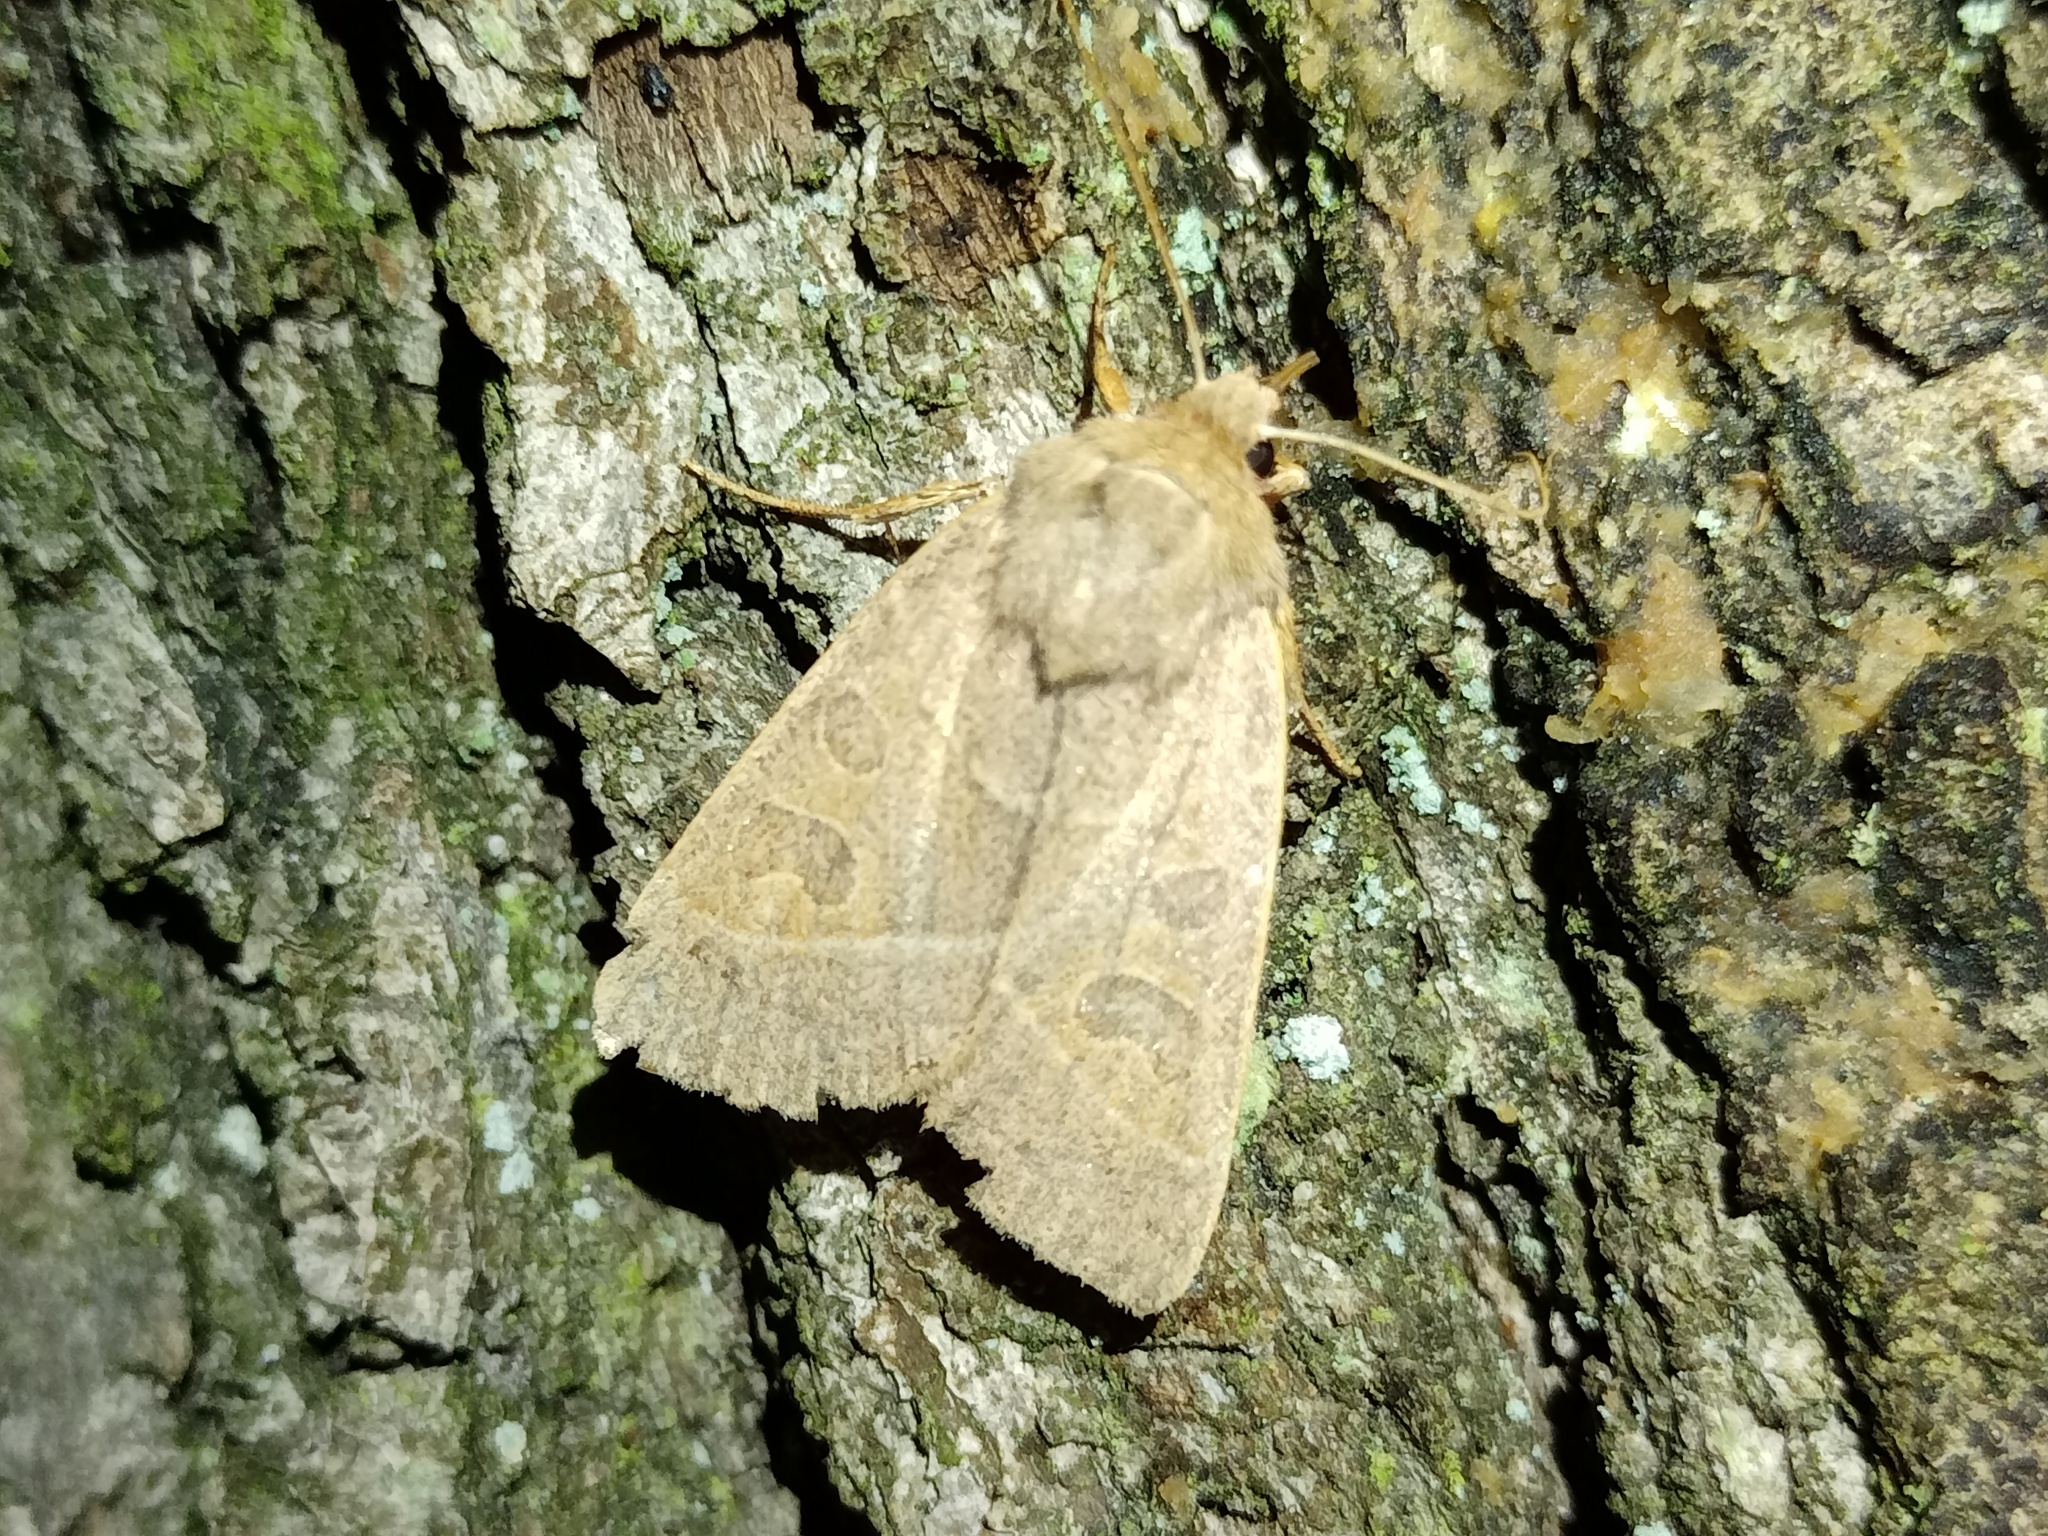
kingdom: Animalia
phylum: Arthropoda
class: Insecta
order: Lepidoptera
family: Noctuidae
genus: Mesogona
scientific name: Mesogona acetosellae
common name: Pale stigma
